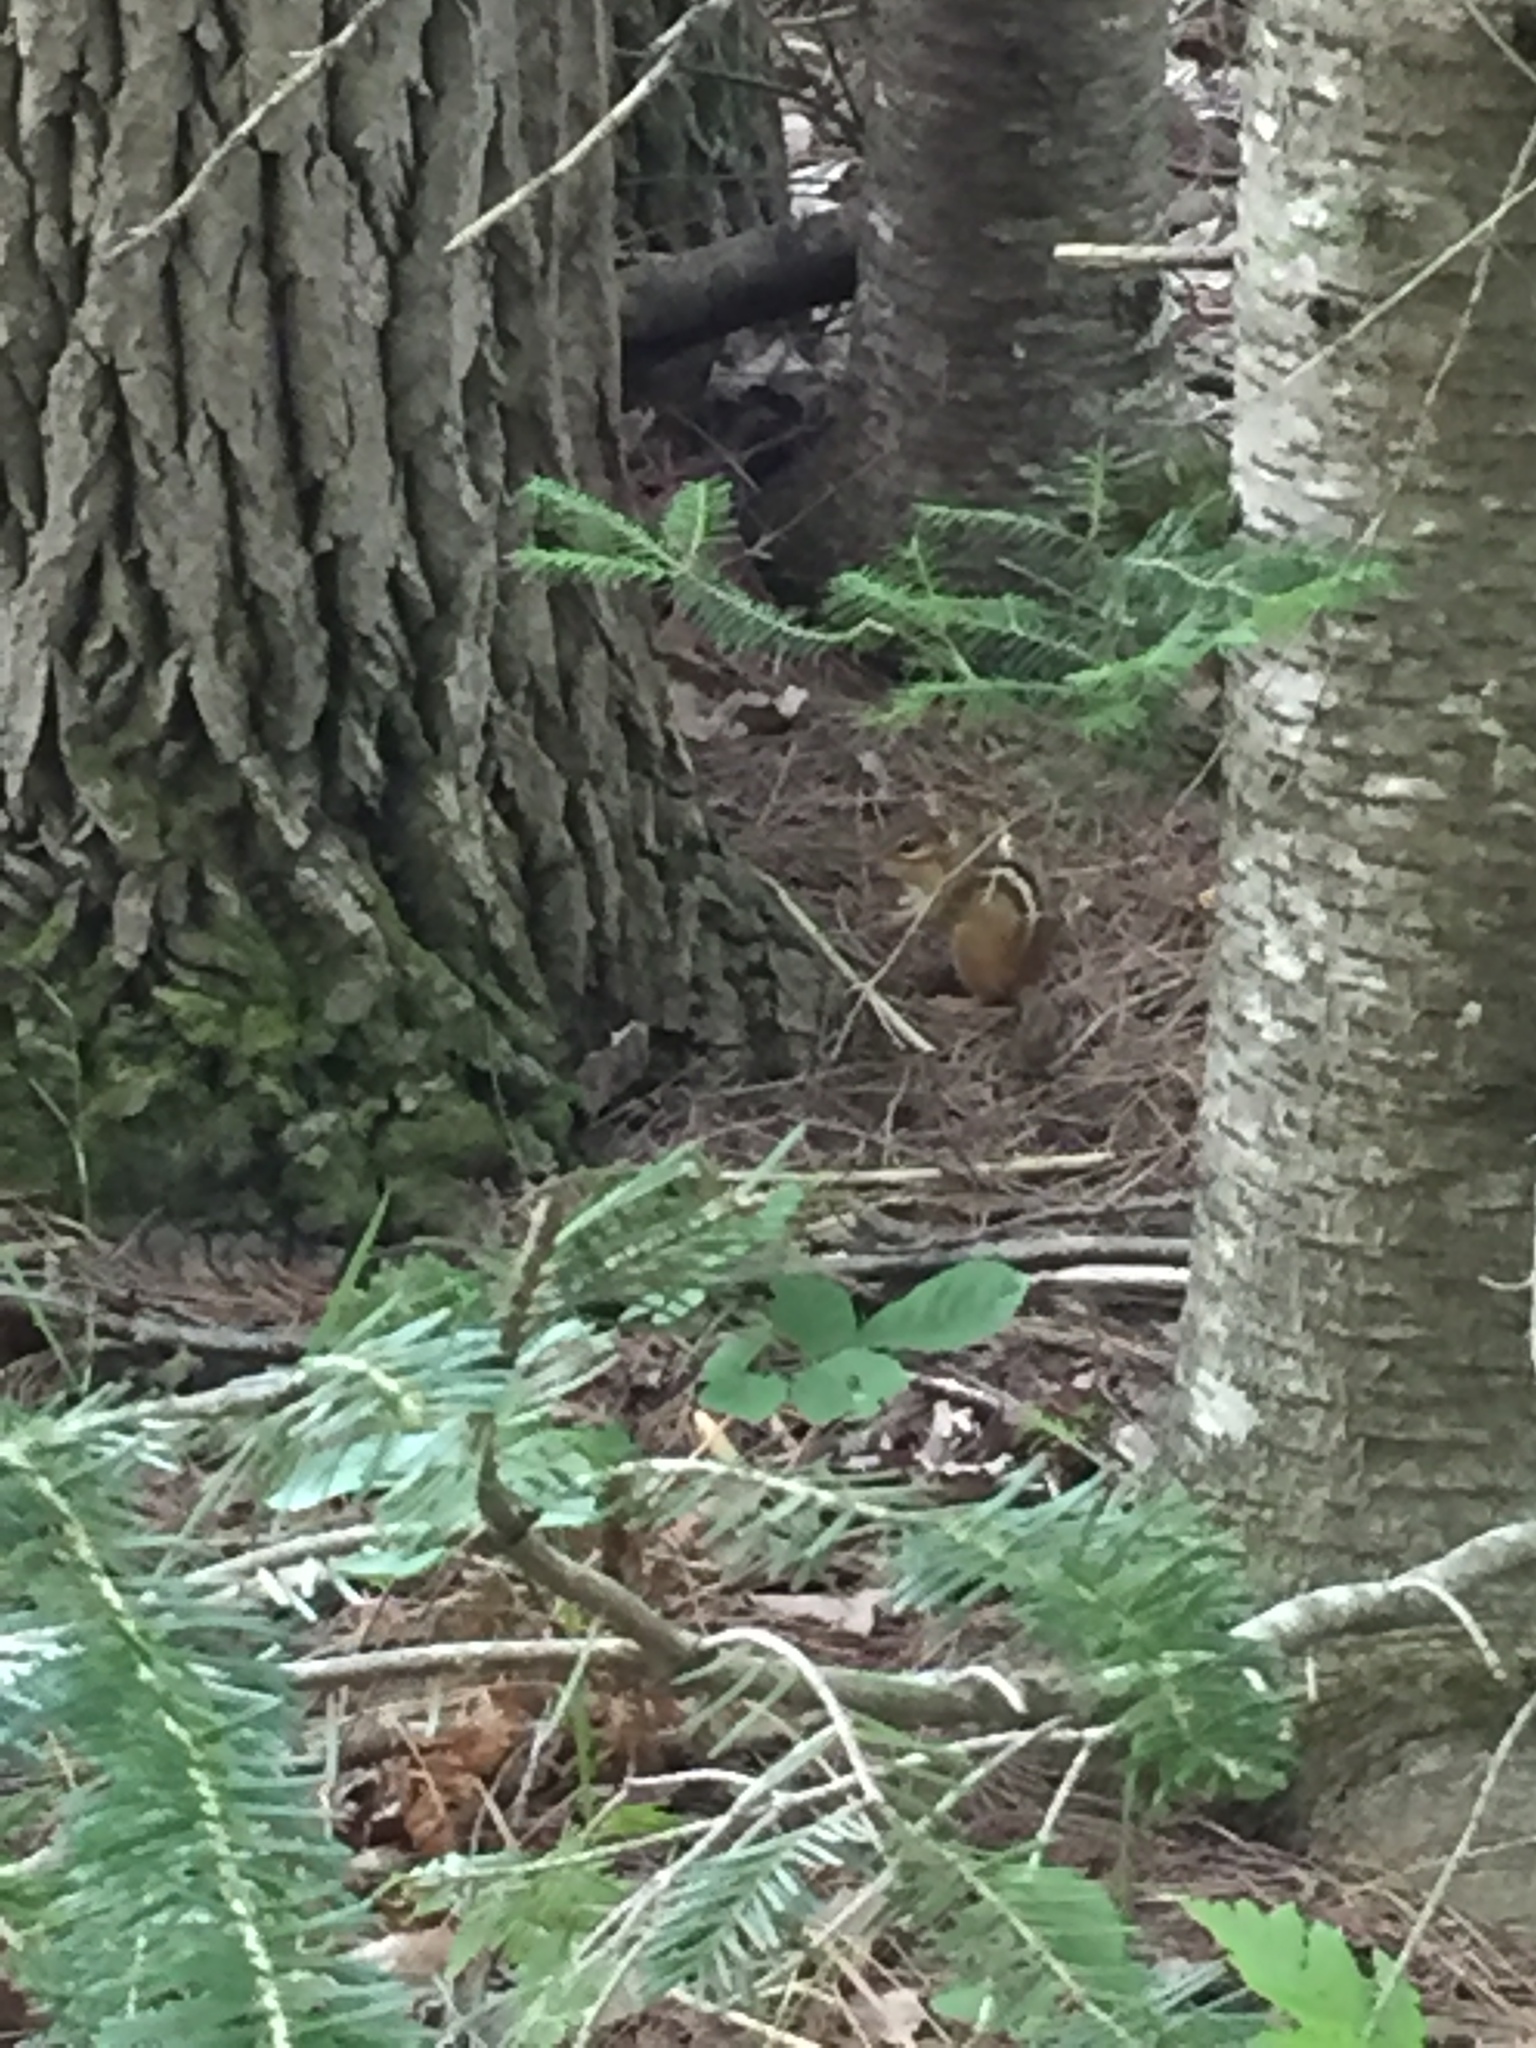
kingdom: Animalia
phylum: Chordata
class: Mammalia
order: Rodentia
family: Sciuridae
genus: Tamias
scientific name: Tamias striatus
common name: Eastern chipmunk
